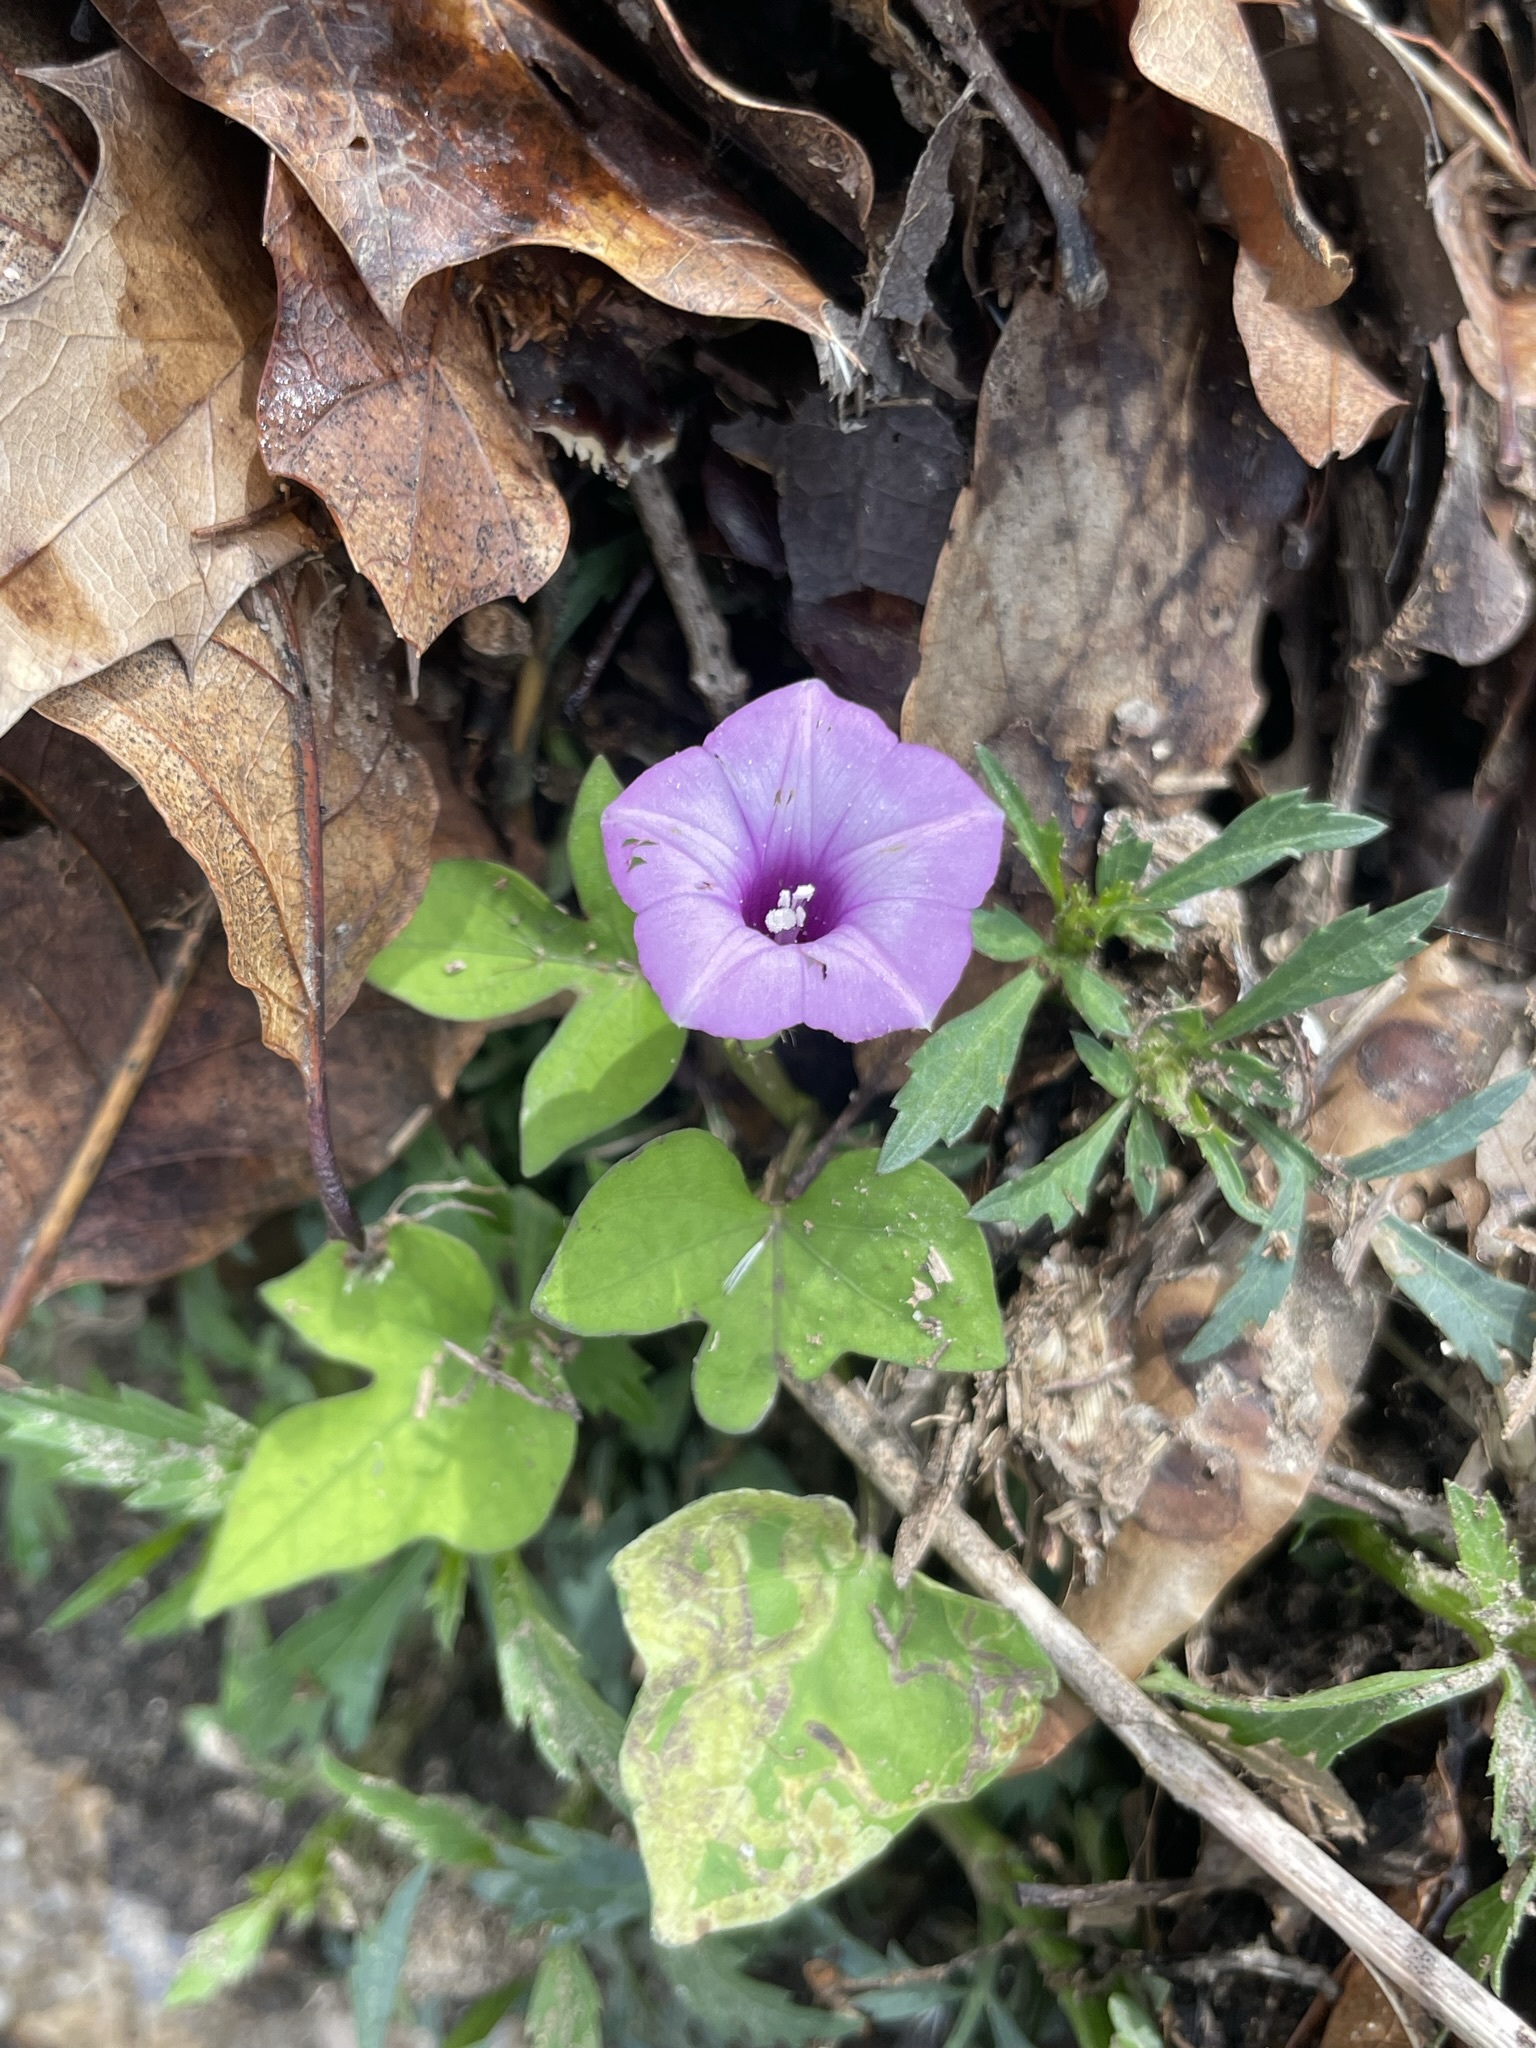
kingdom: Plantae
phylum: Tracheophyta
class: Magnoliopsida
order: Solanales
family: Convolvulaceae
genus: Ipomoea
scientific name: Ipomoea triloba
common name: Little-bell
